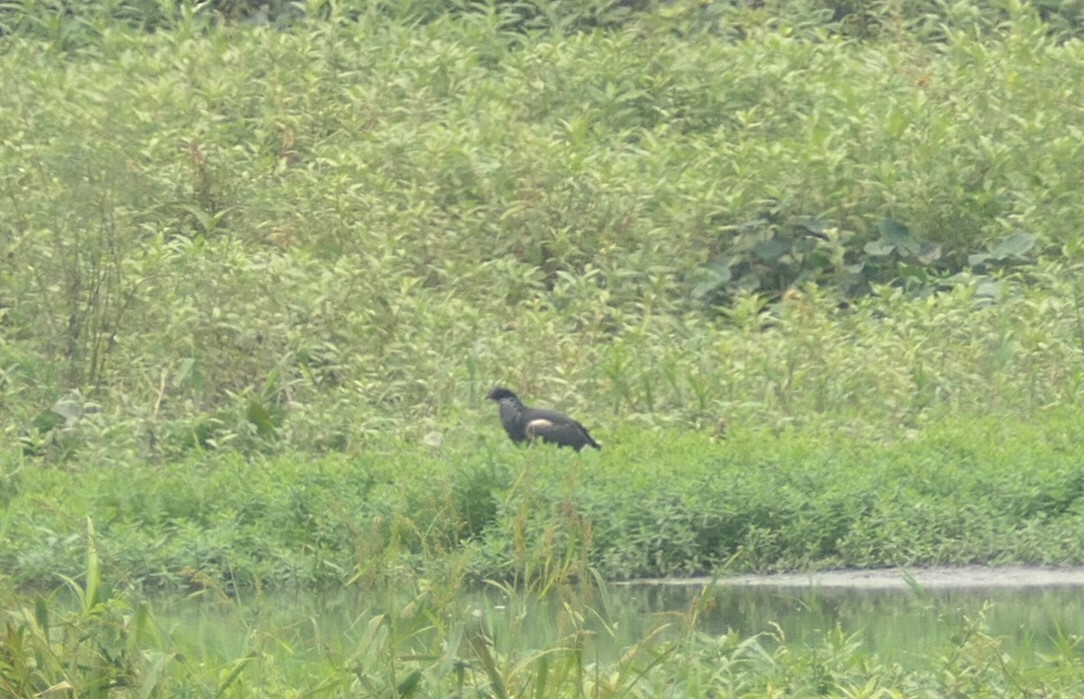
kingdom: Animalia
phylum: Chordata
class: Aves
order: Anseriformes
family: Anhimidae
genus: Anhima
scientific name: Anhima cornuta
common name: Horned screamer
